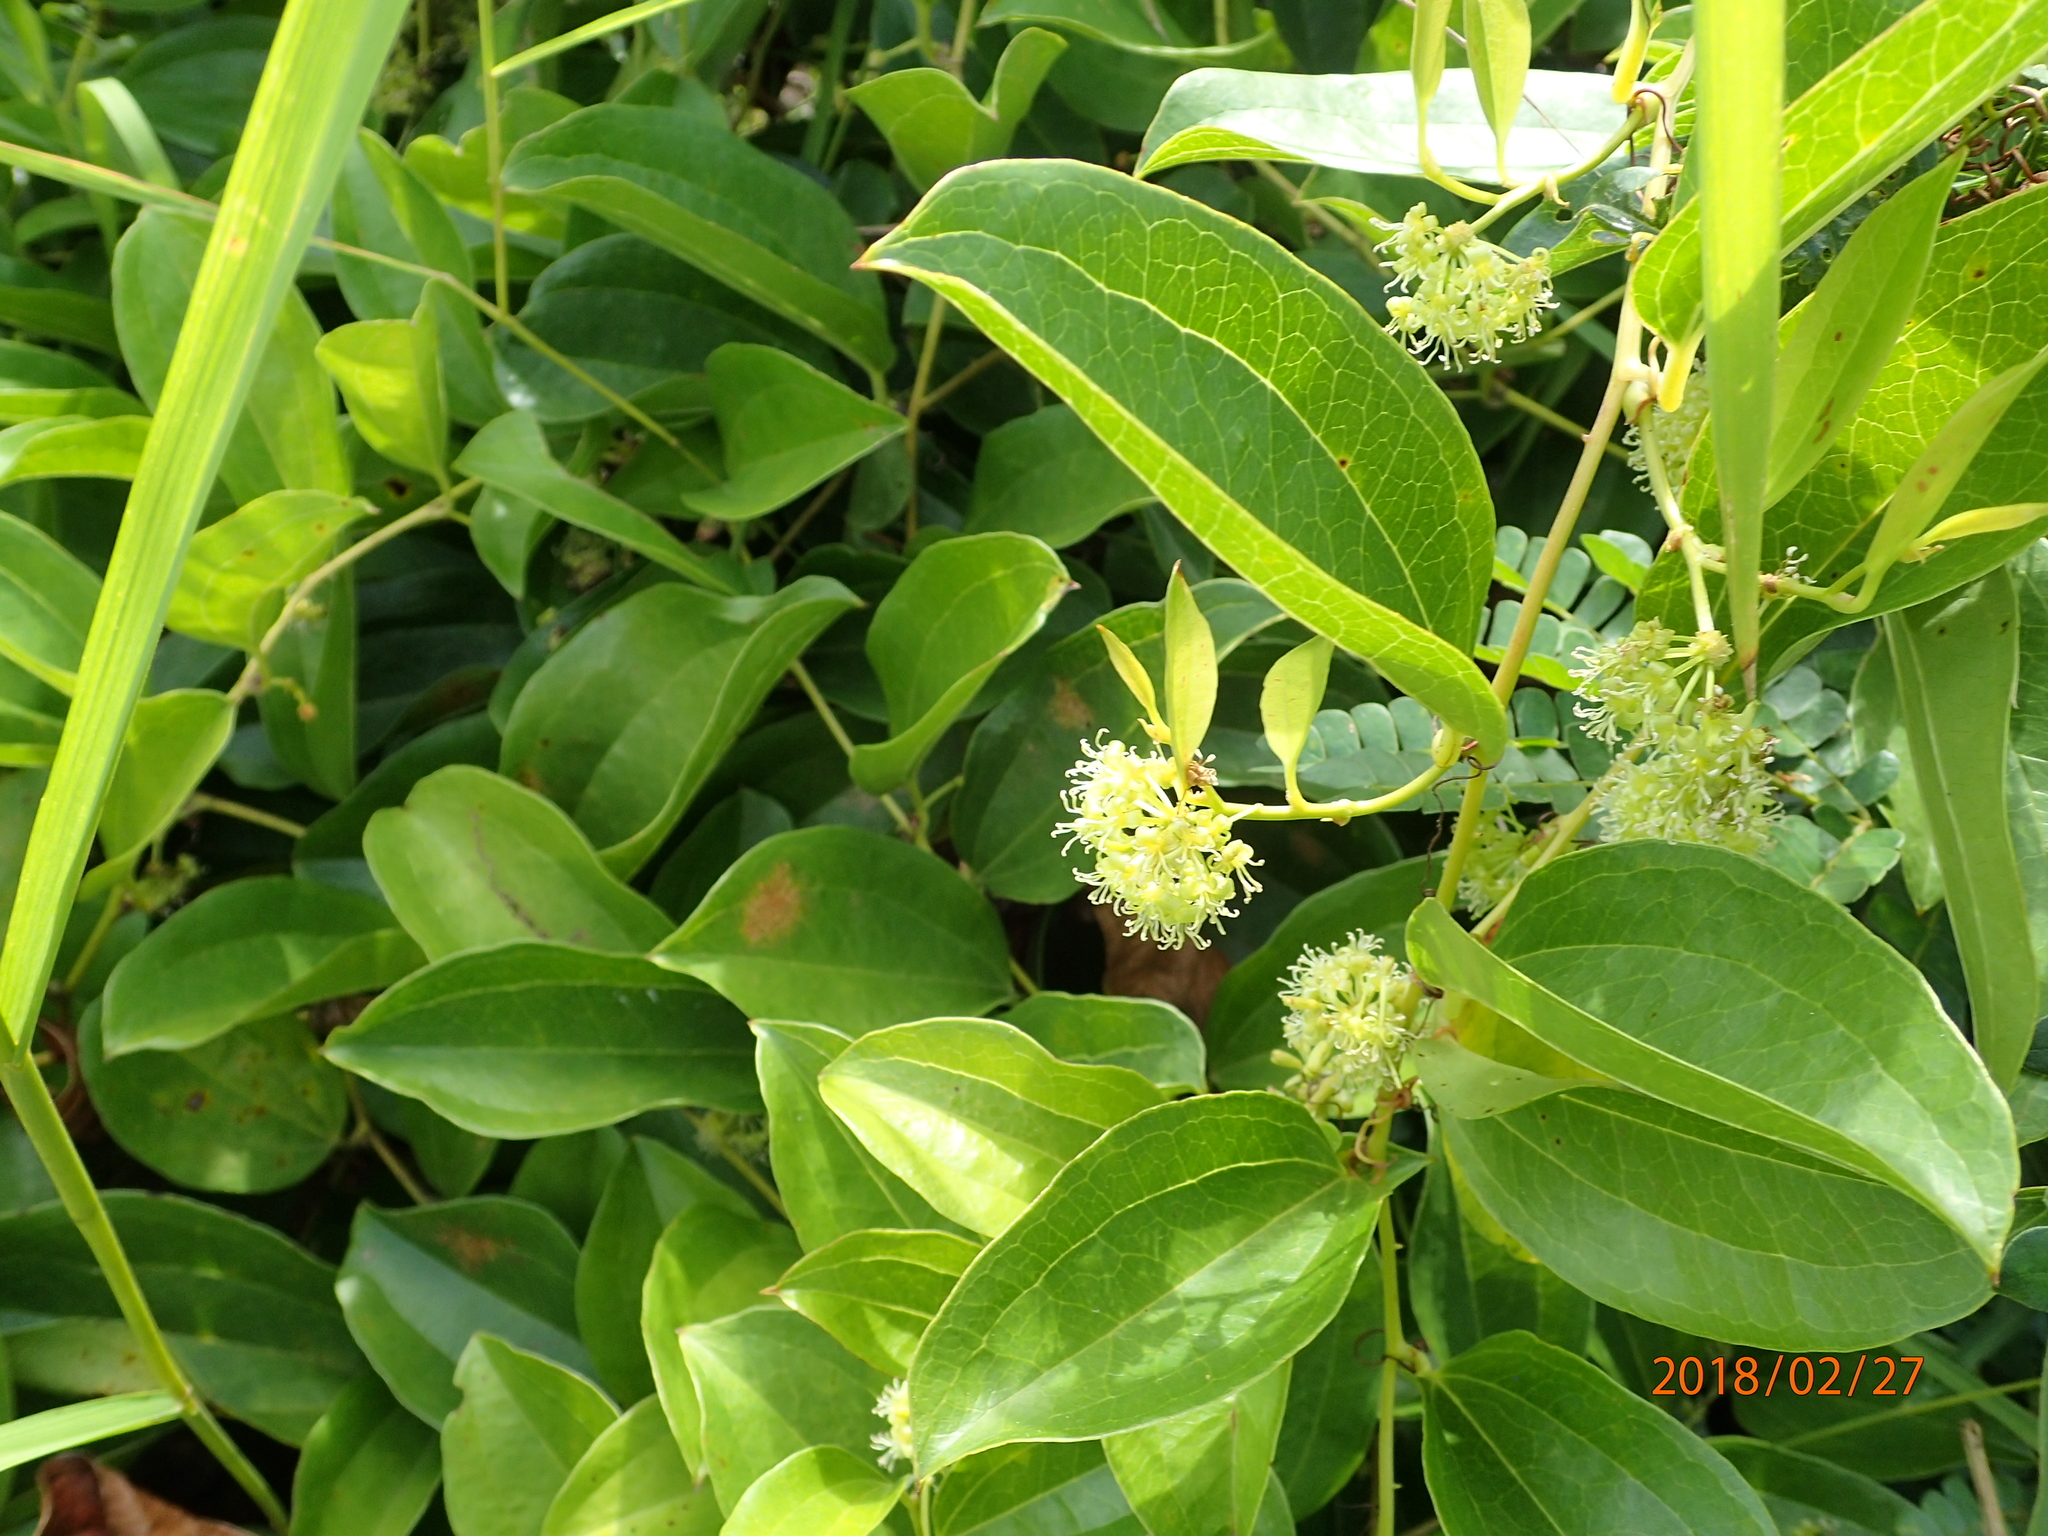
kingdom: Plantae
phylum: Tracheophyta
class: Liliopsida
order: Liliales
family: Smilacaceae
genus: Smilax
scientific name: Smilax anceps
